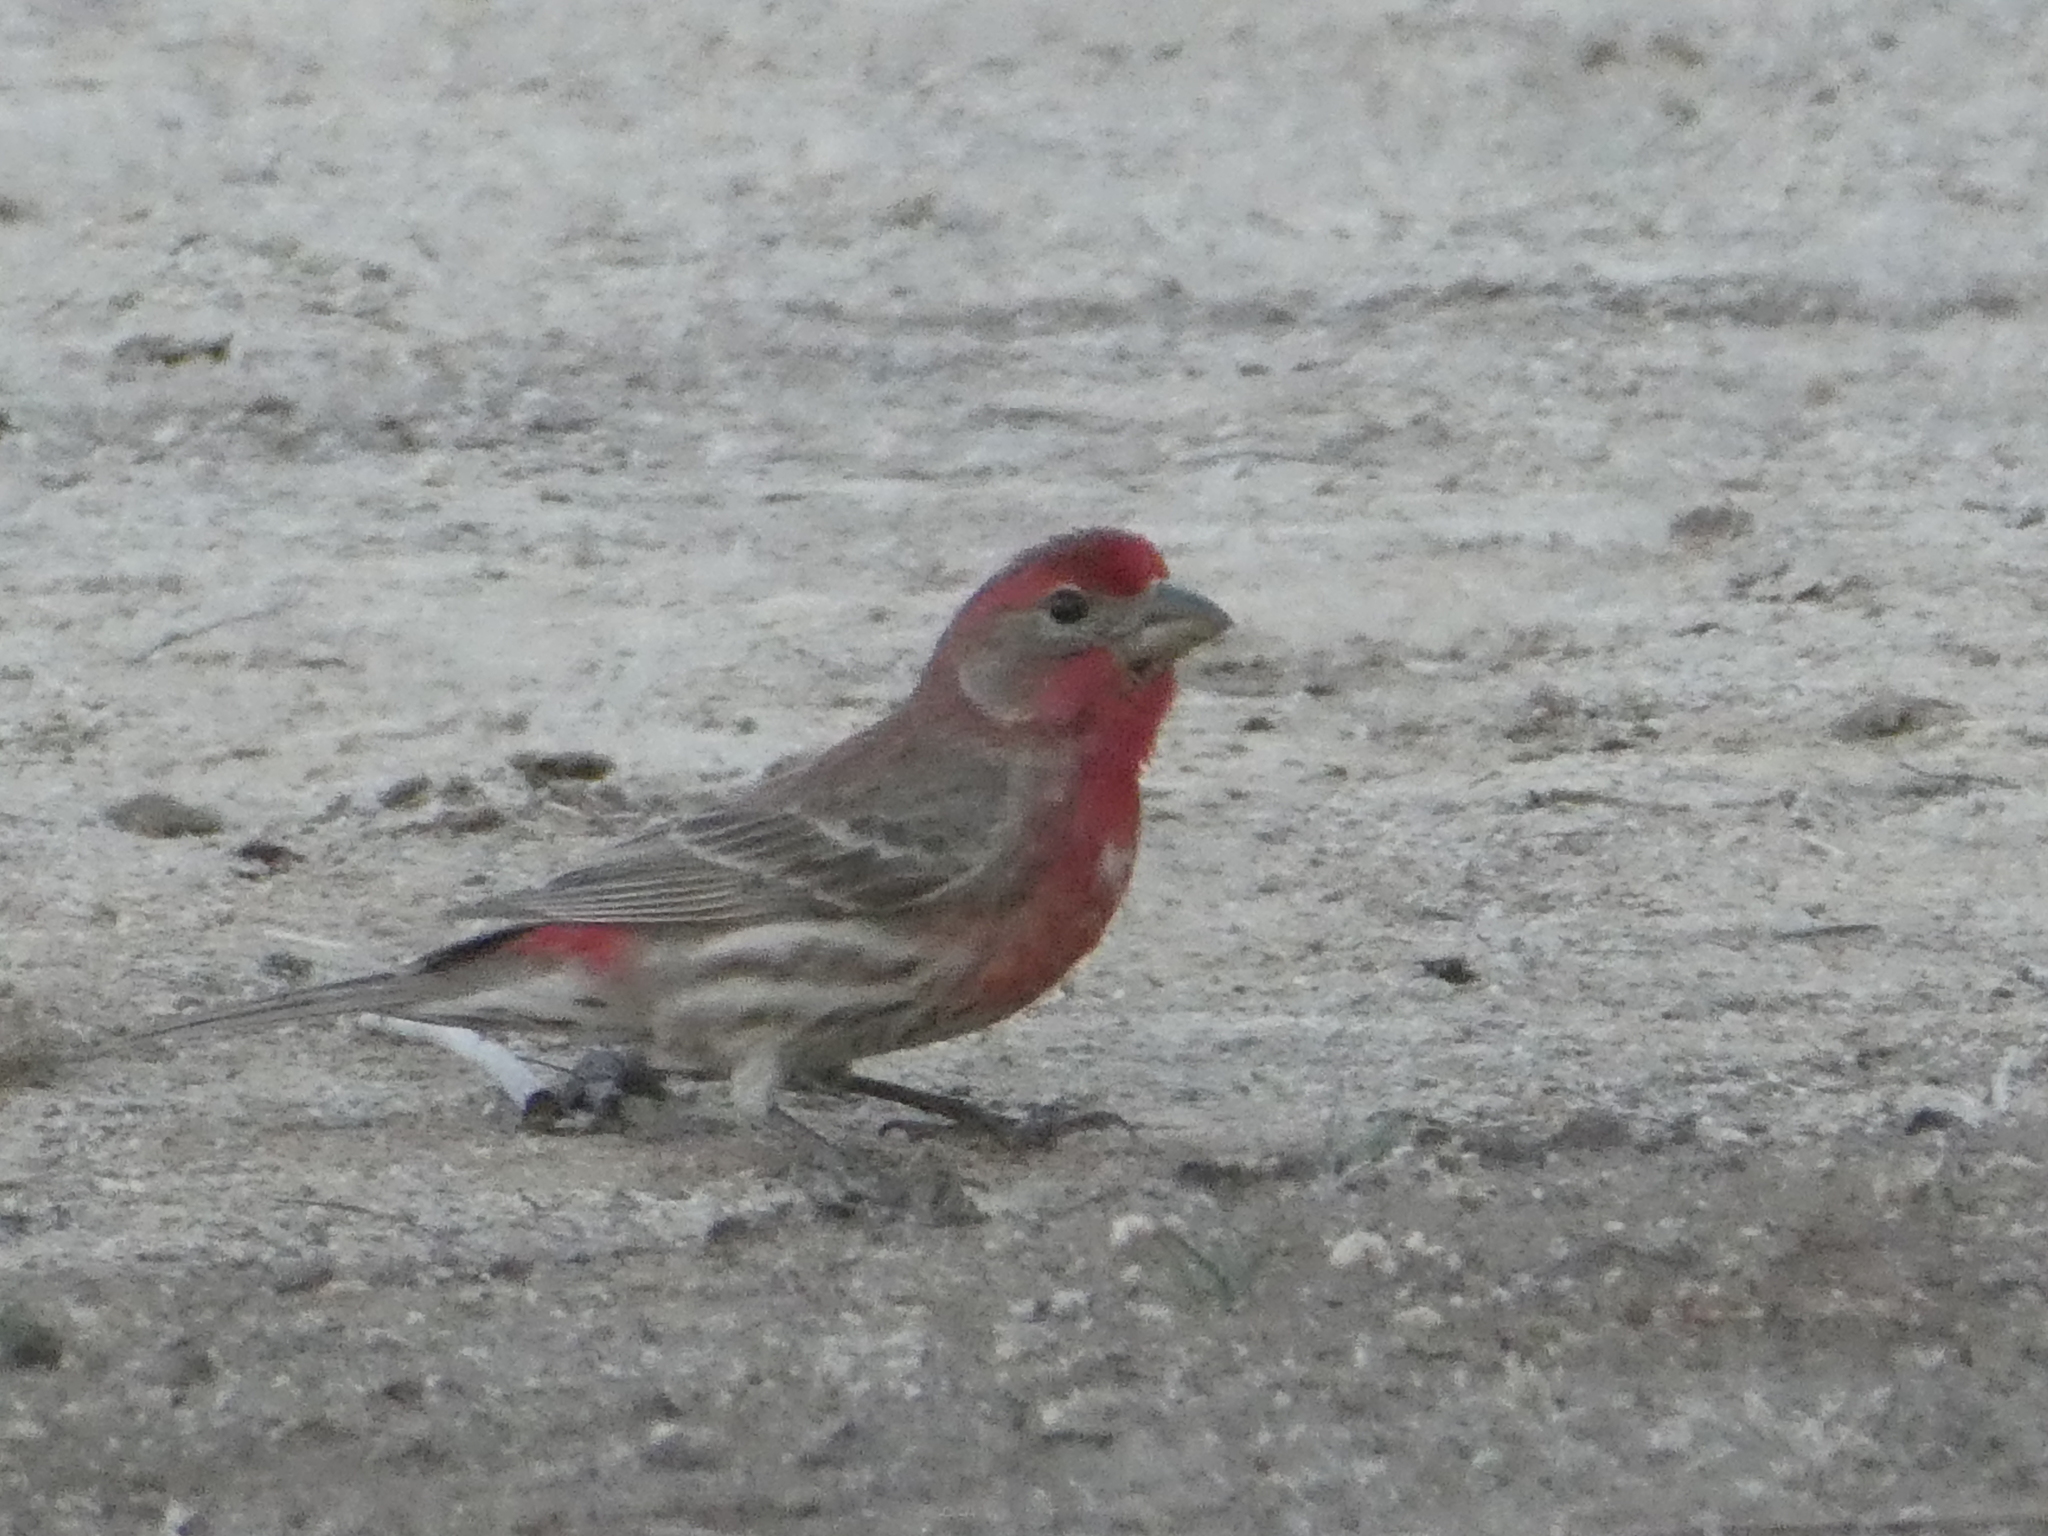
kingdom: Animalia
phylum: Chordata
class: Aves
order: Passeriformes
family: Fringillidae
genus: Haemorhous
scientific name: Haemorhous mexicanus
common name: House finch
